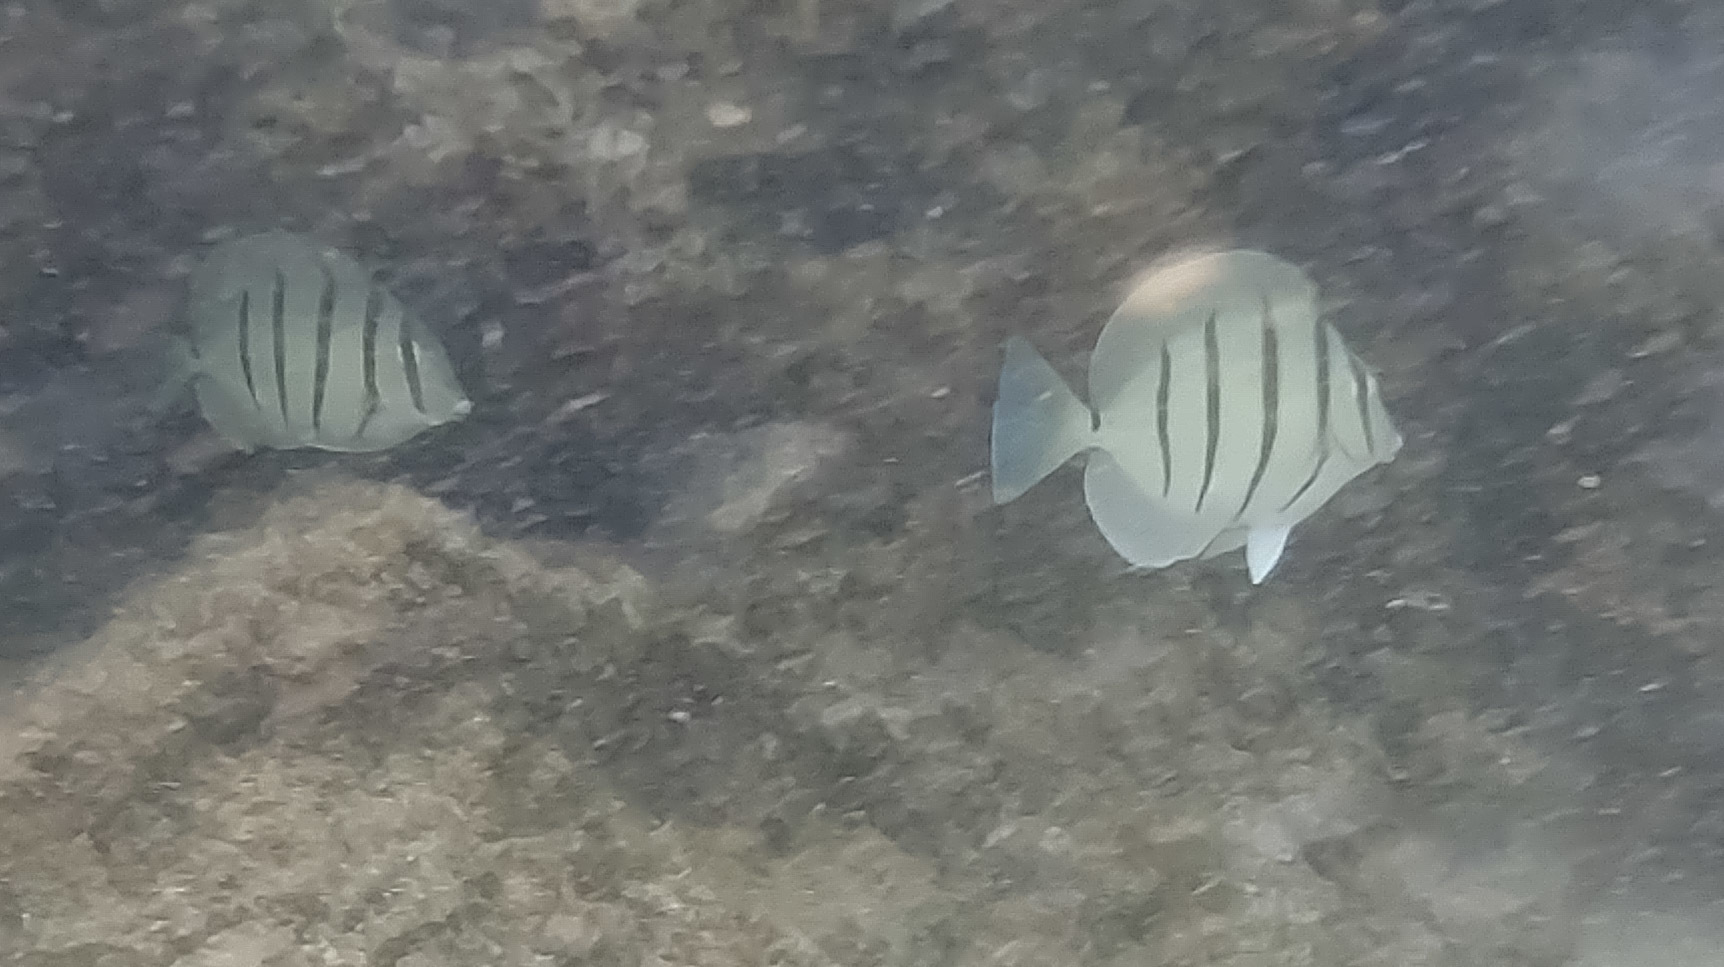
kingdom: Animalia
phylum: Chordata
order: Perciformes
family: Acanthuridae
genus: Acanthurus
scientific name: Acanthurus triostegus
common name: Convict surgeonfish
